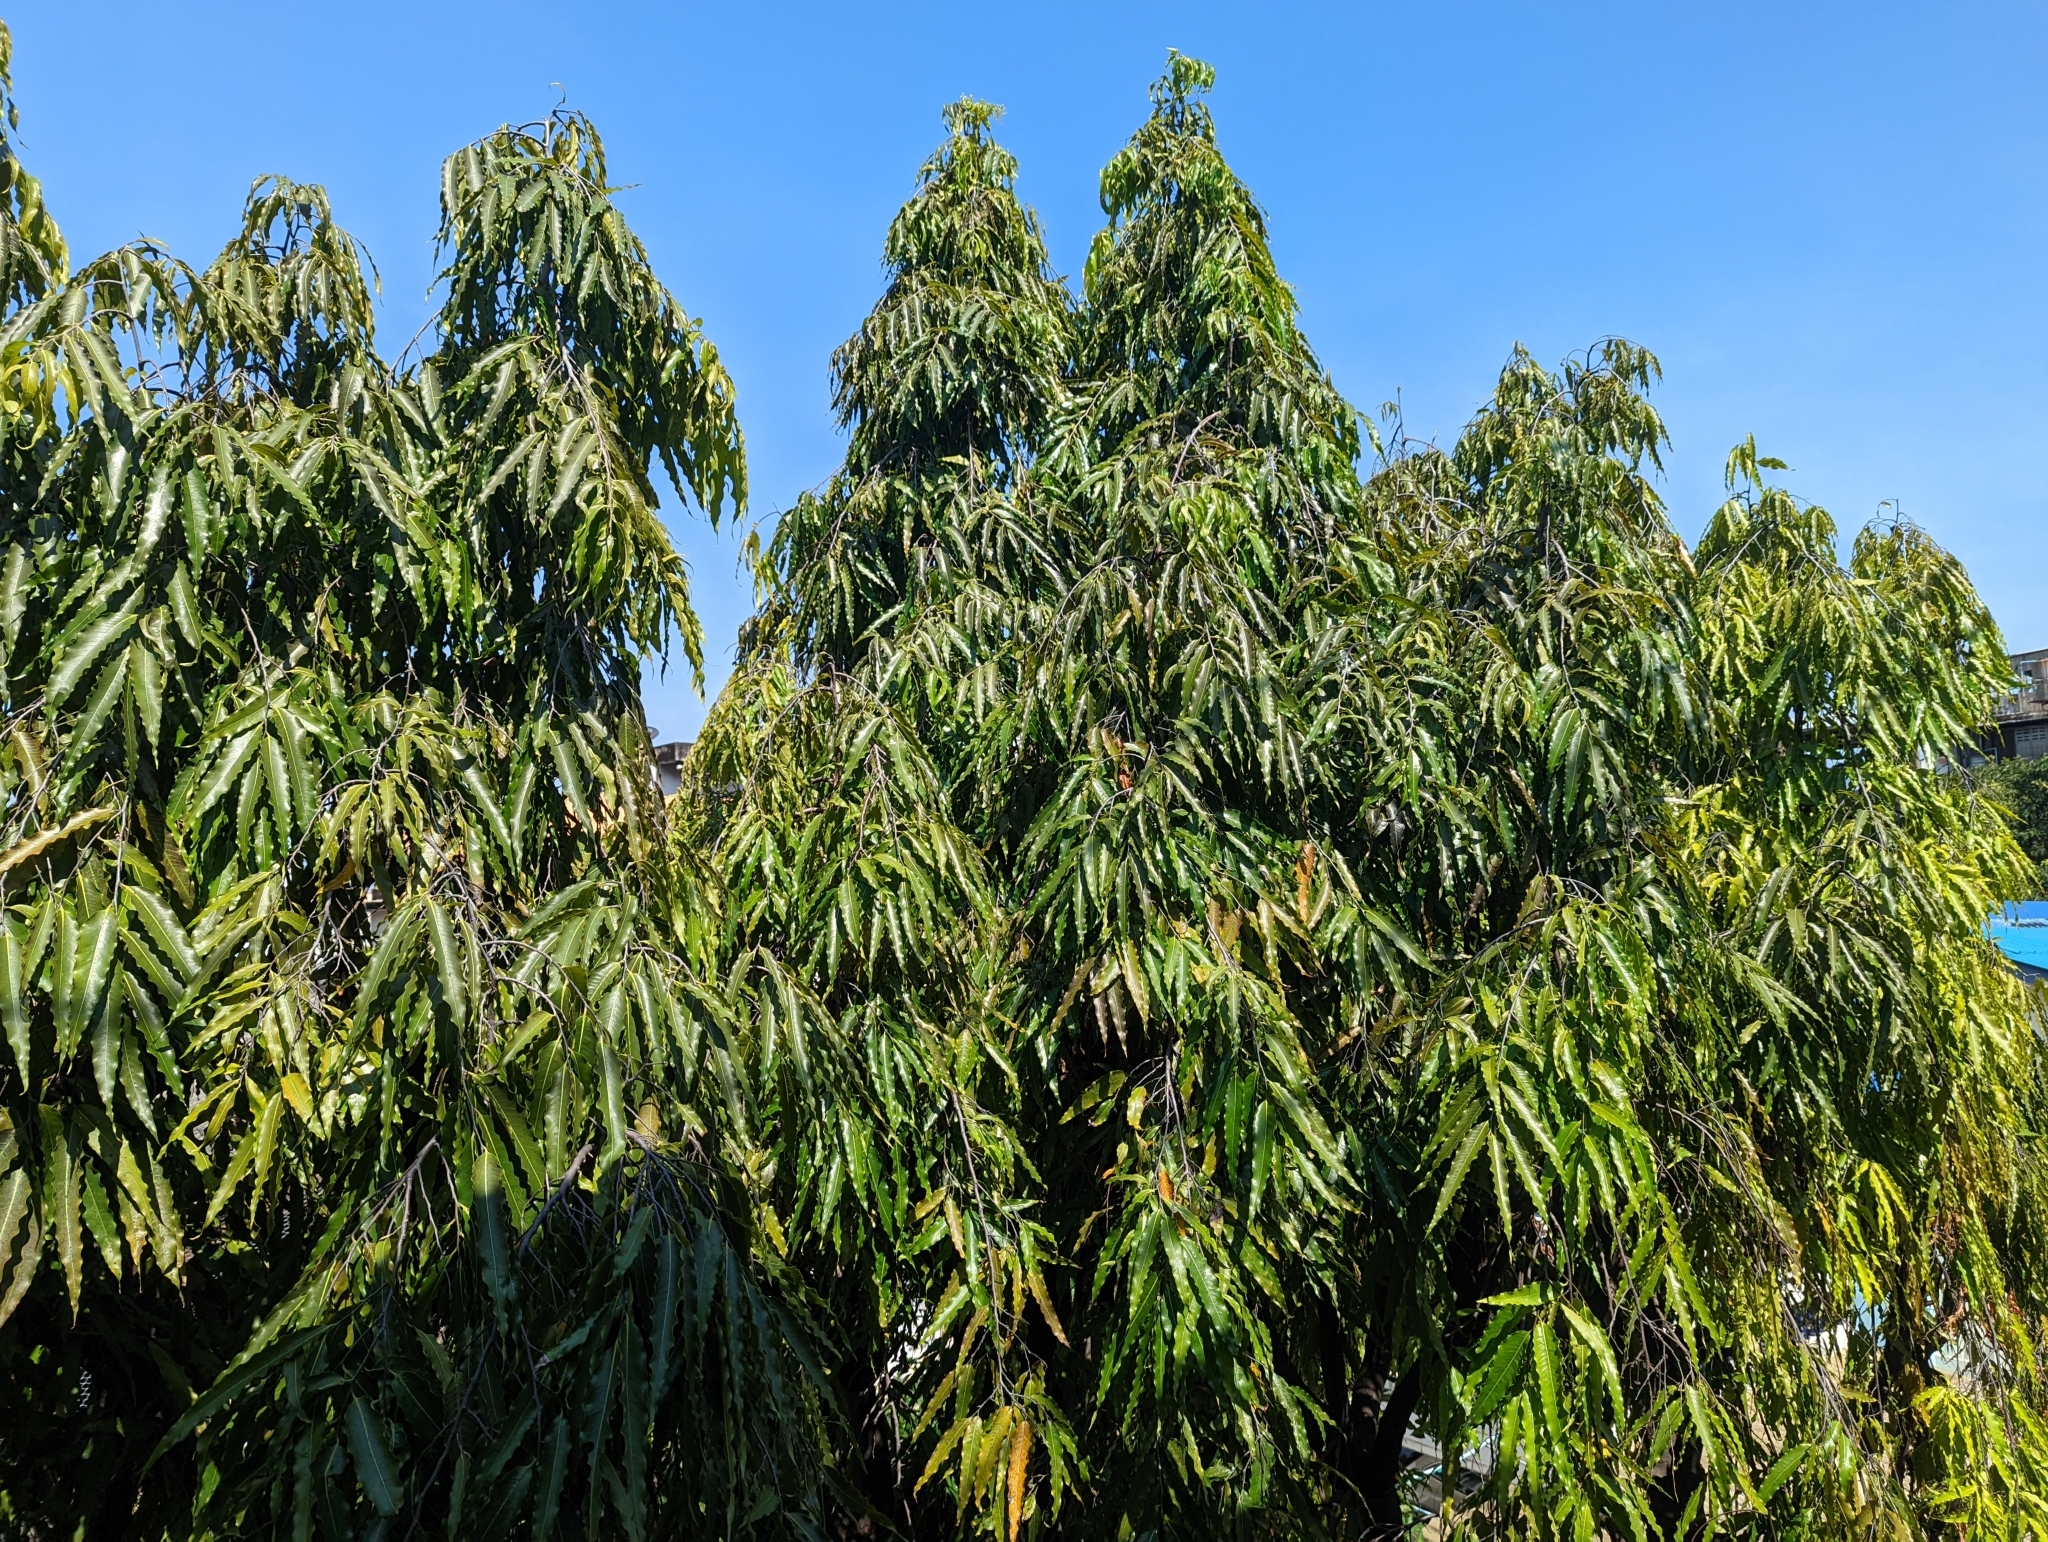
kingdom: Plantae
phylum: Tracheophyta
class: Magnoliopsida
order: Magnoliales
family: Annonaceae
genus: Polyalthia
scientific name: Polyalthia longifolia
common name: Cemetery-tree
